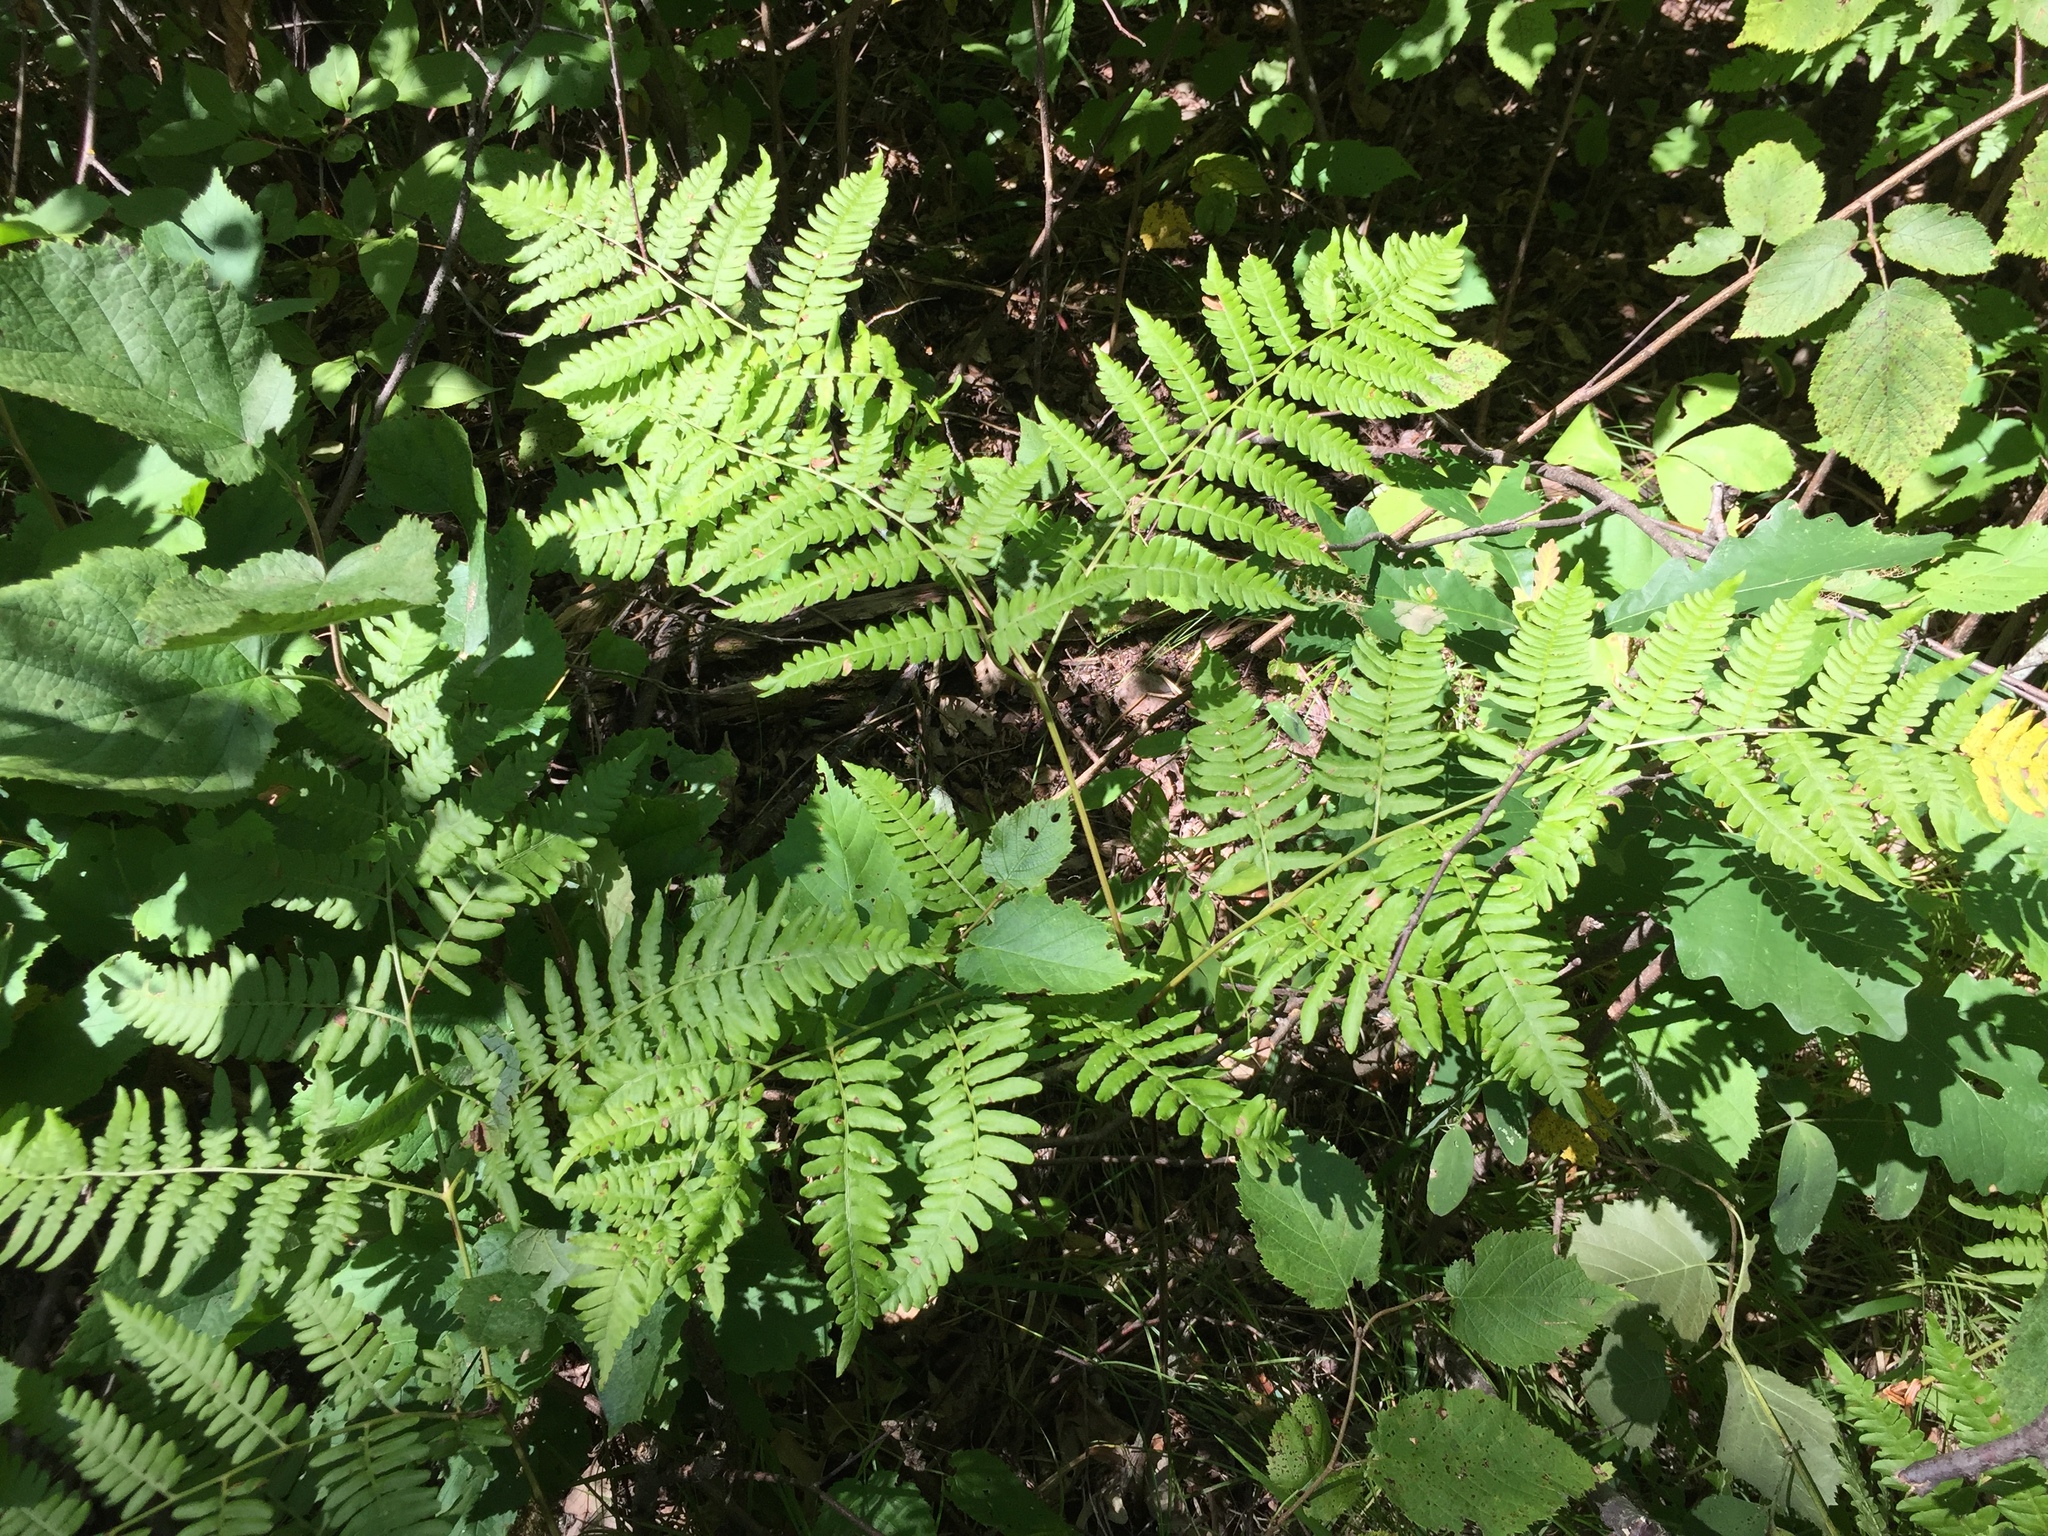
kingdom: Plantae
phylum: Tracheophyta
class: Polypodiopsida
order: Polypodiales
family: Dennstaedtiaceae
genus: Pteridium
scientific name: Pteridium aquilinum
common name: Bracken
